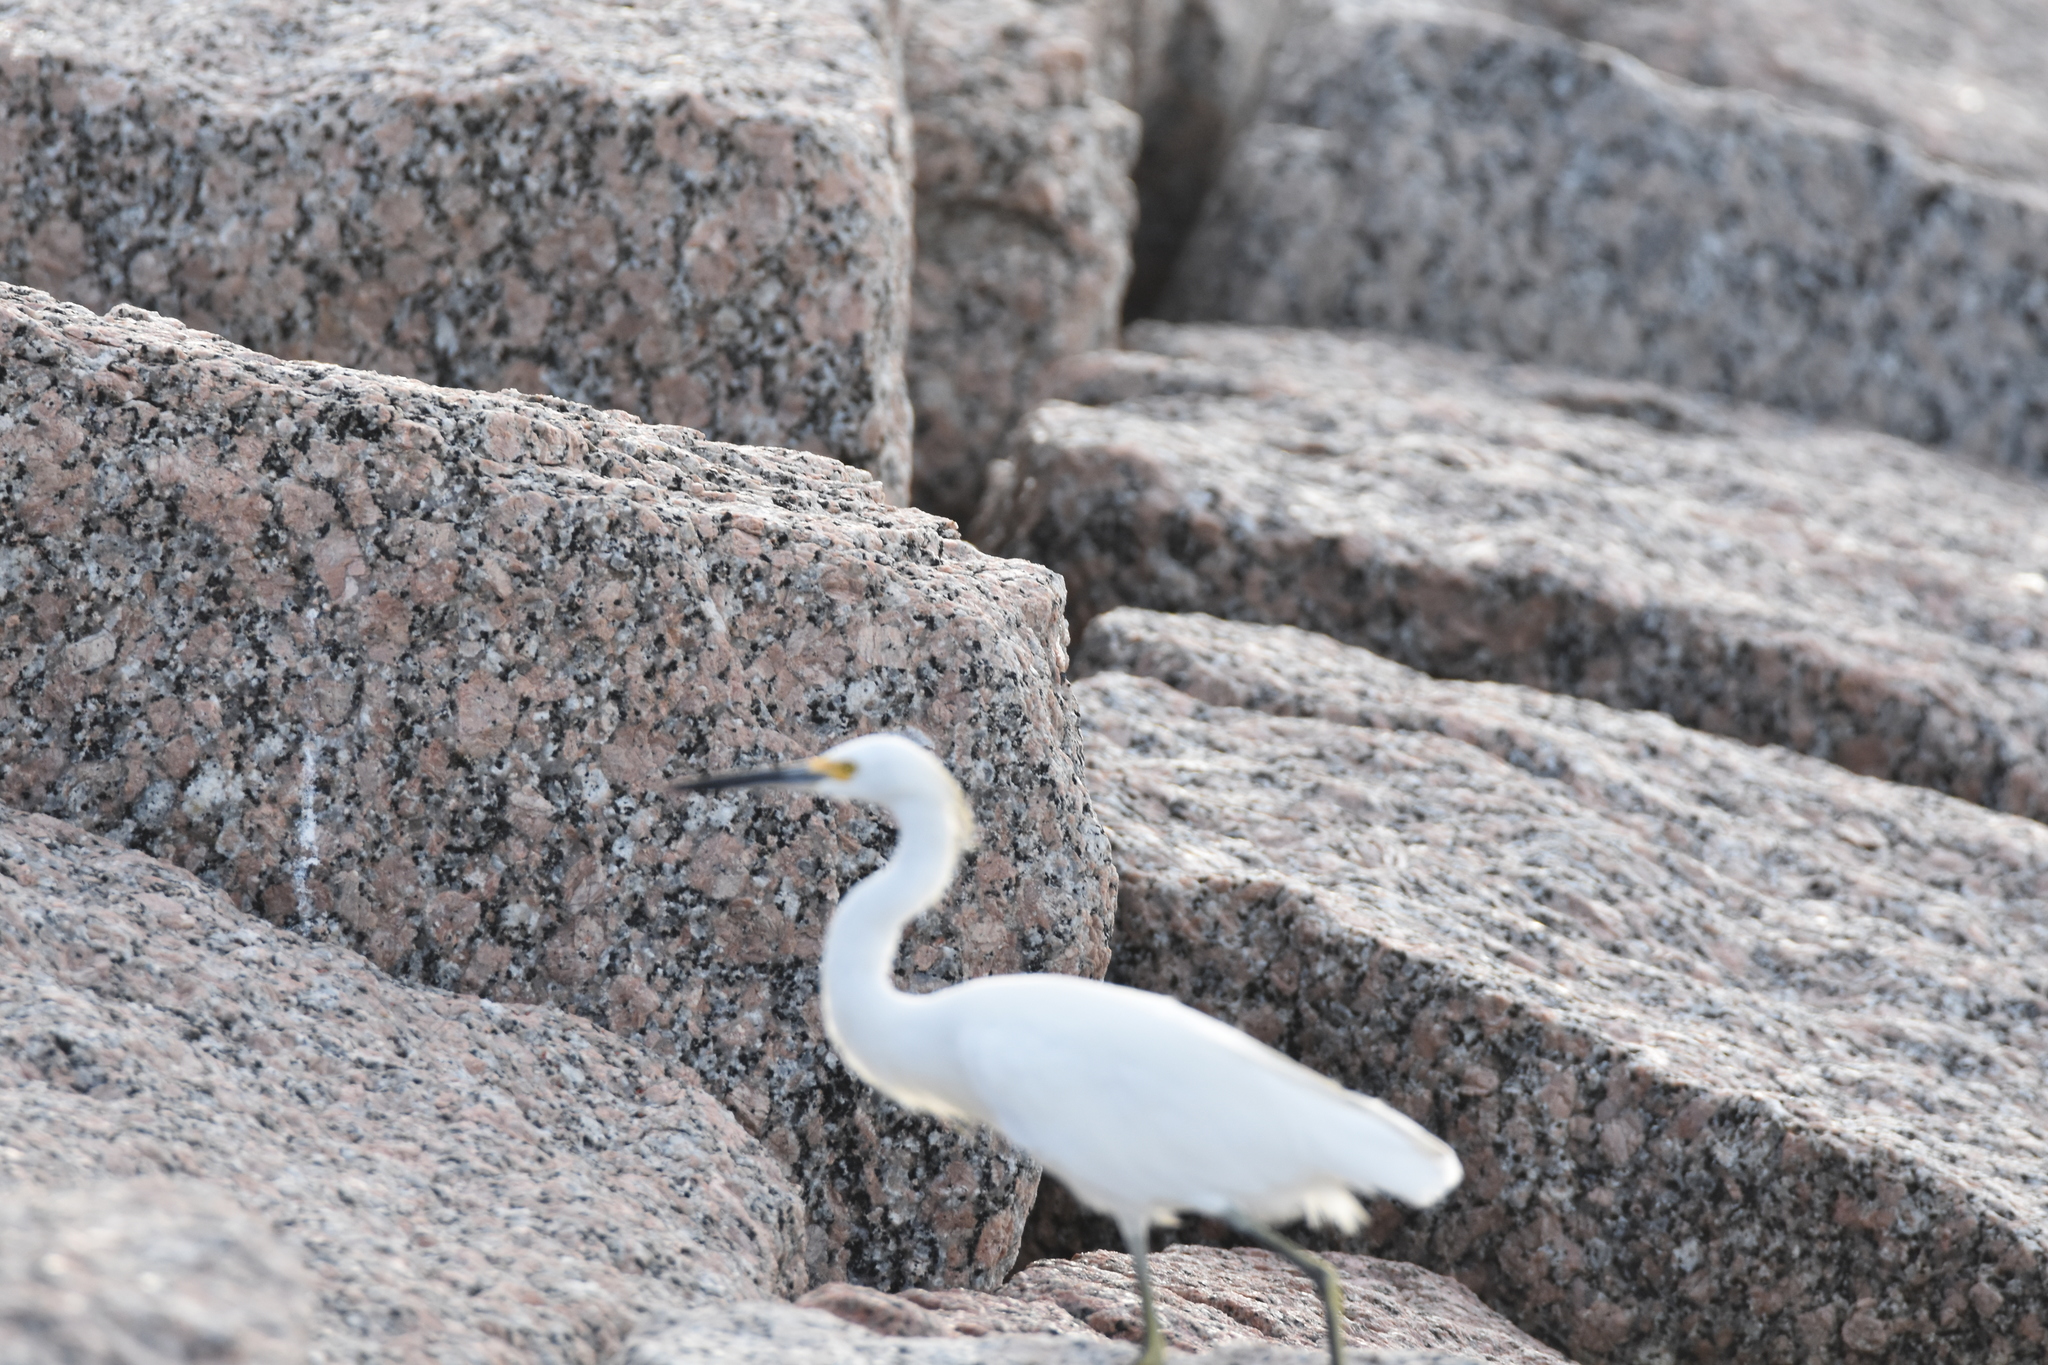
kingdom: Animalia
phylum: Chordata
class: Aves
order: Pelecaniformes
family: Ardeidae
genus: Egretta
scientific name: Egretta thula
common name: Snowy egret
